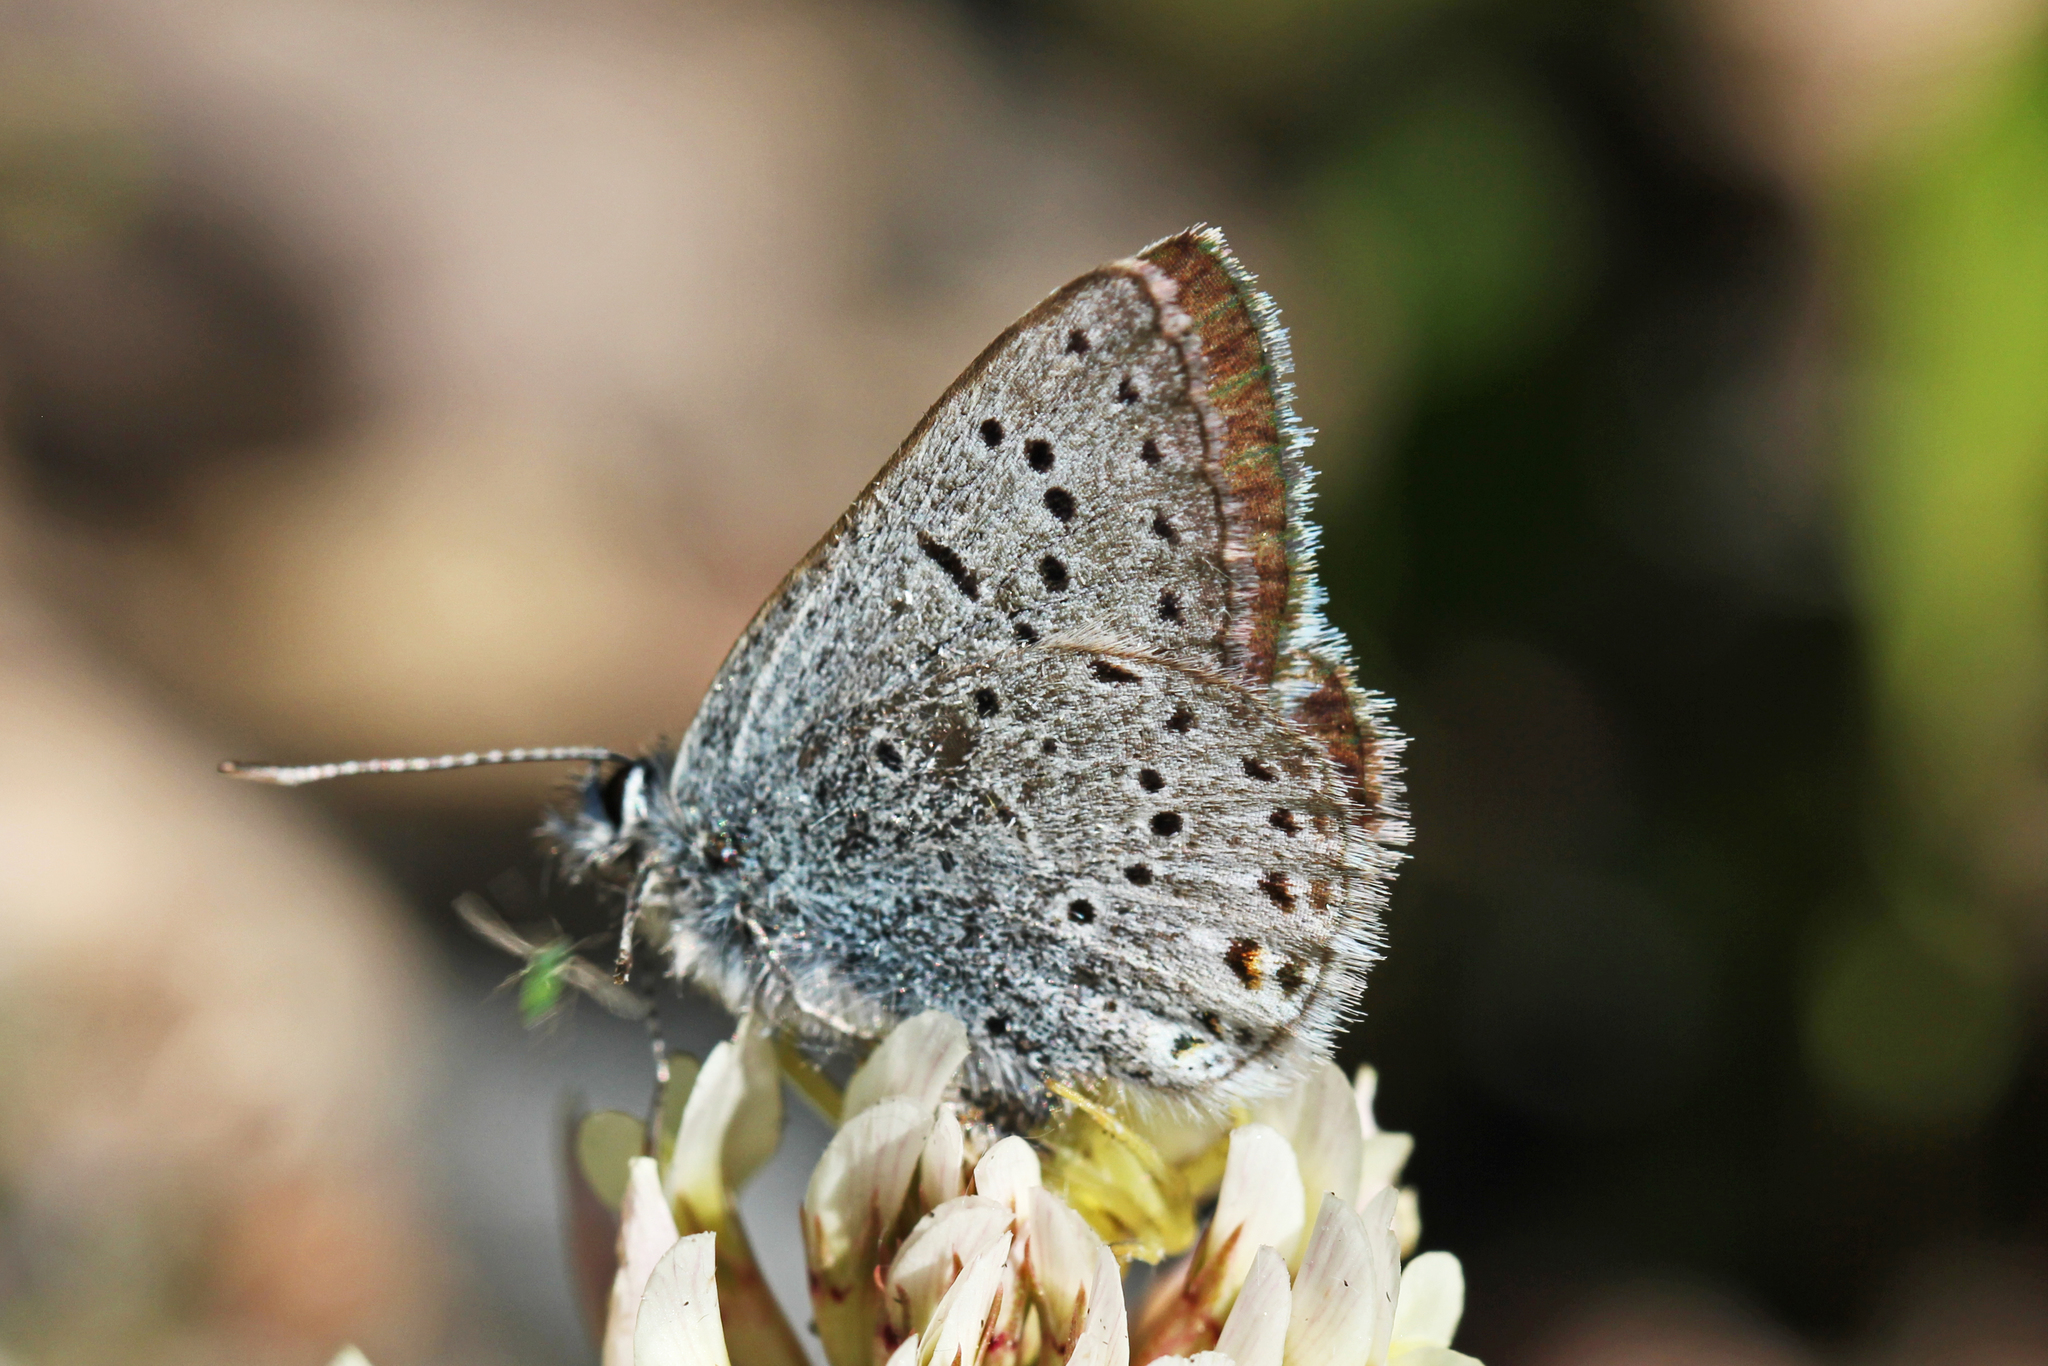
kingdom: Animalia
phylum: Arthropoda
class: Insecta
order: Lepidoptera
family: Lycaenidae
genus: Icaricia
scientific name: Icaricia saepiolus
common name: Greenish blue
